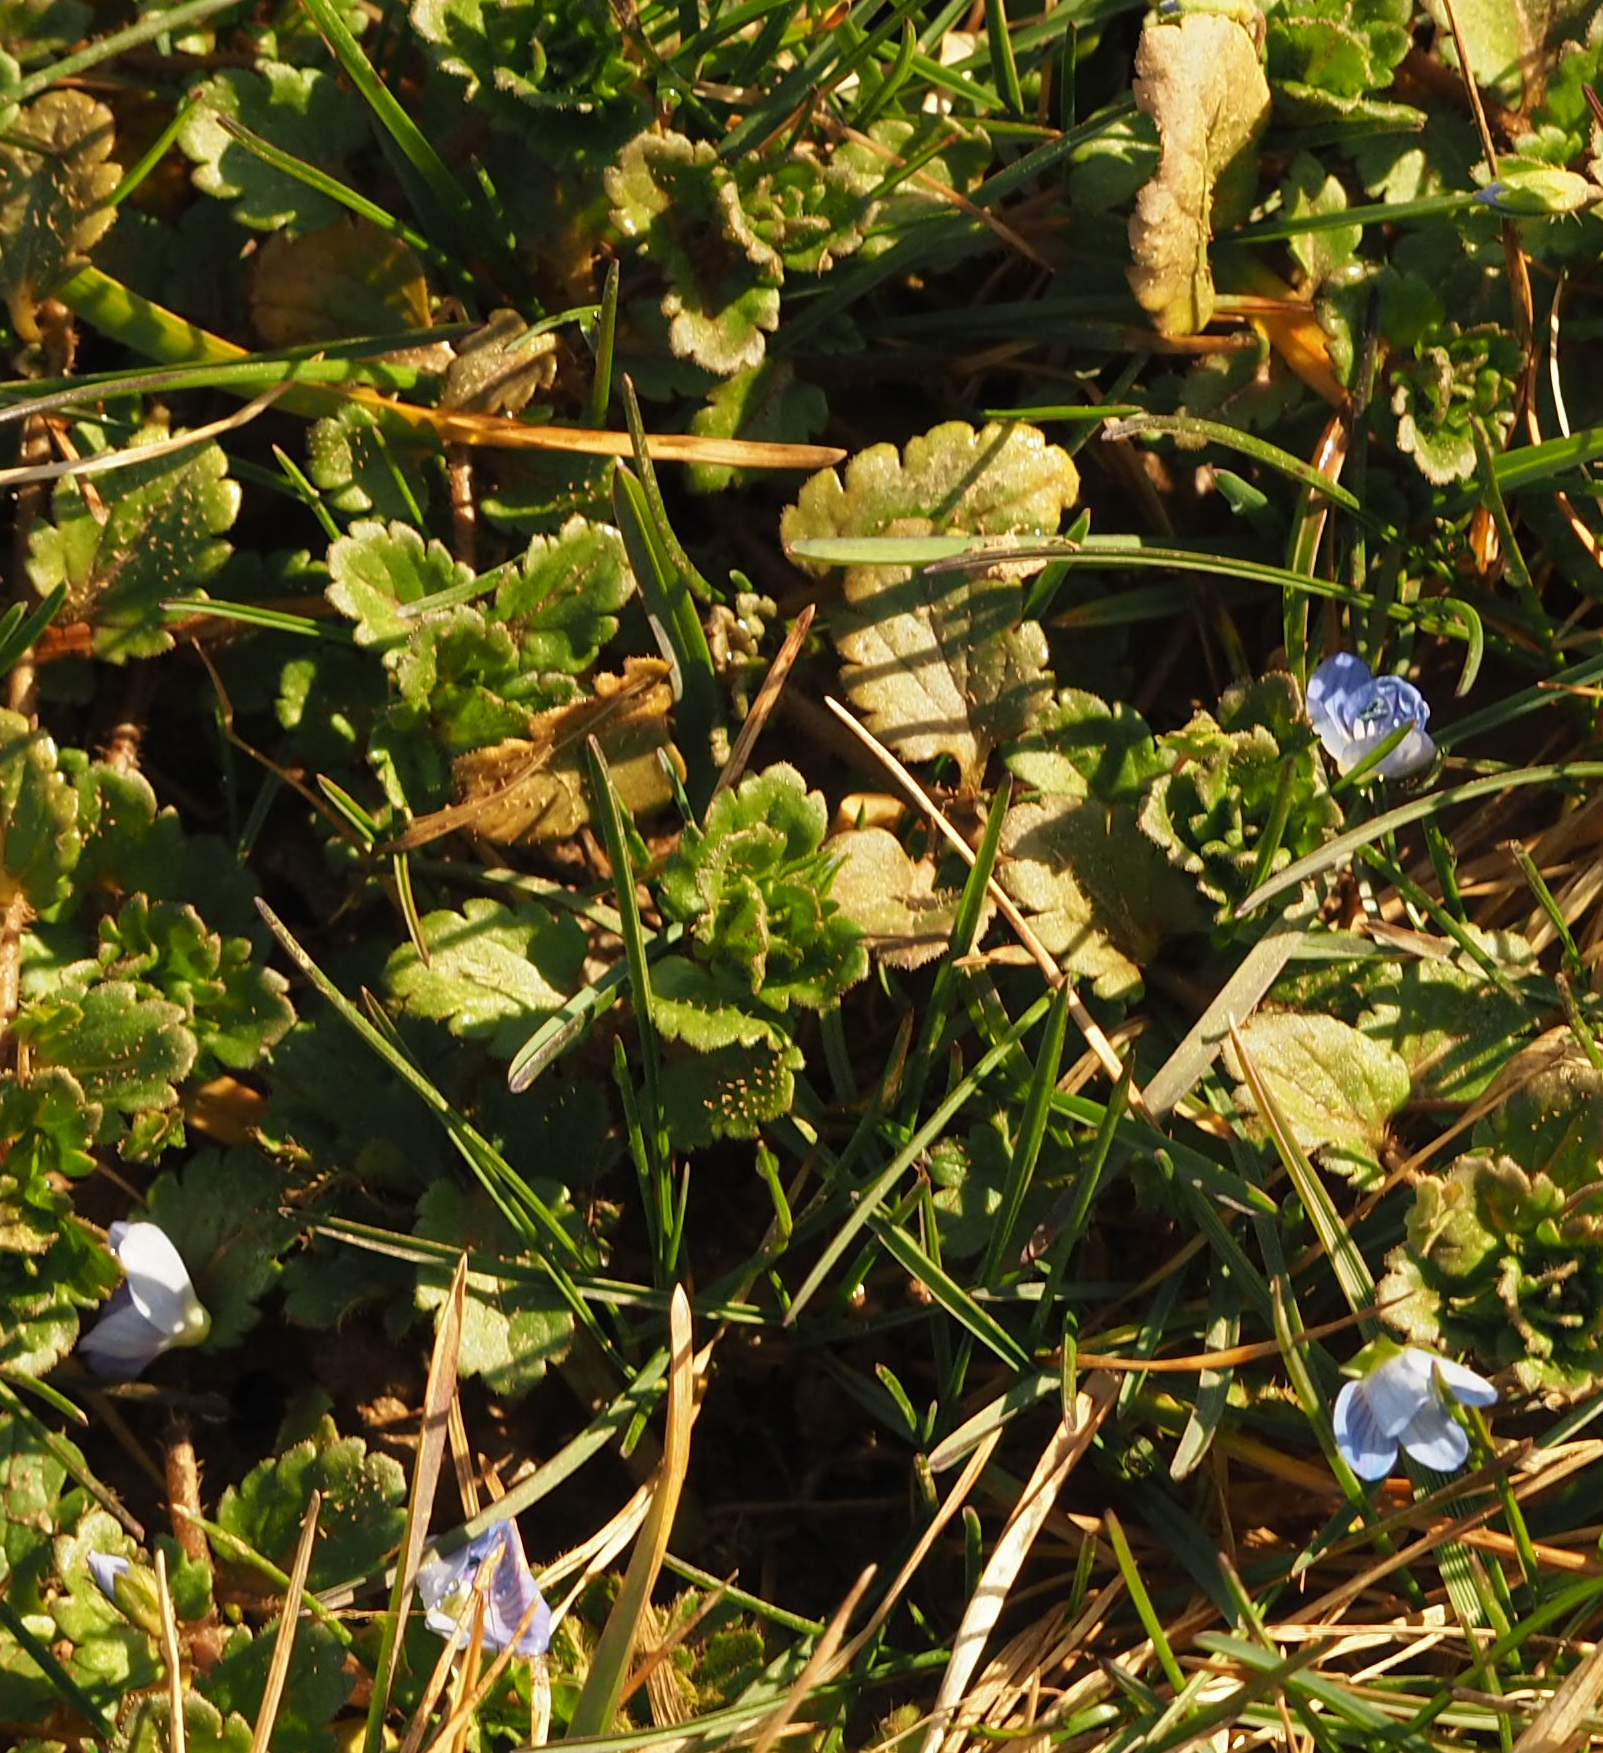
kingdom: Plantae
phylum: Tracheophyta
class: Magnoliopsida
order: Lamiales
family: Plantaginaceae
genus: Veronica
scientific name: Veronica persica
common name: Common field-speedwell
